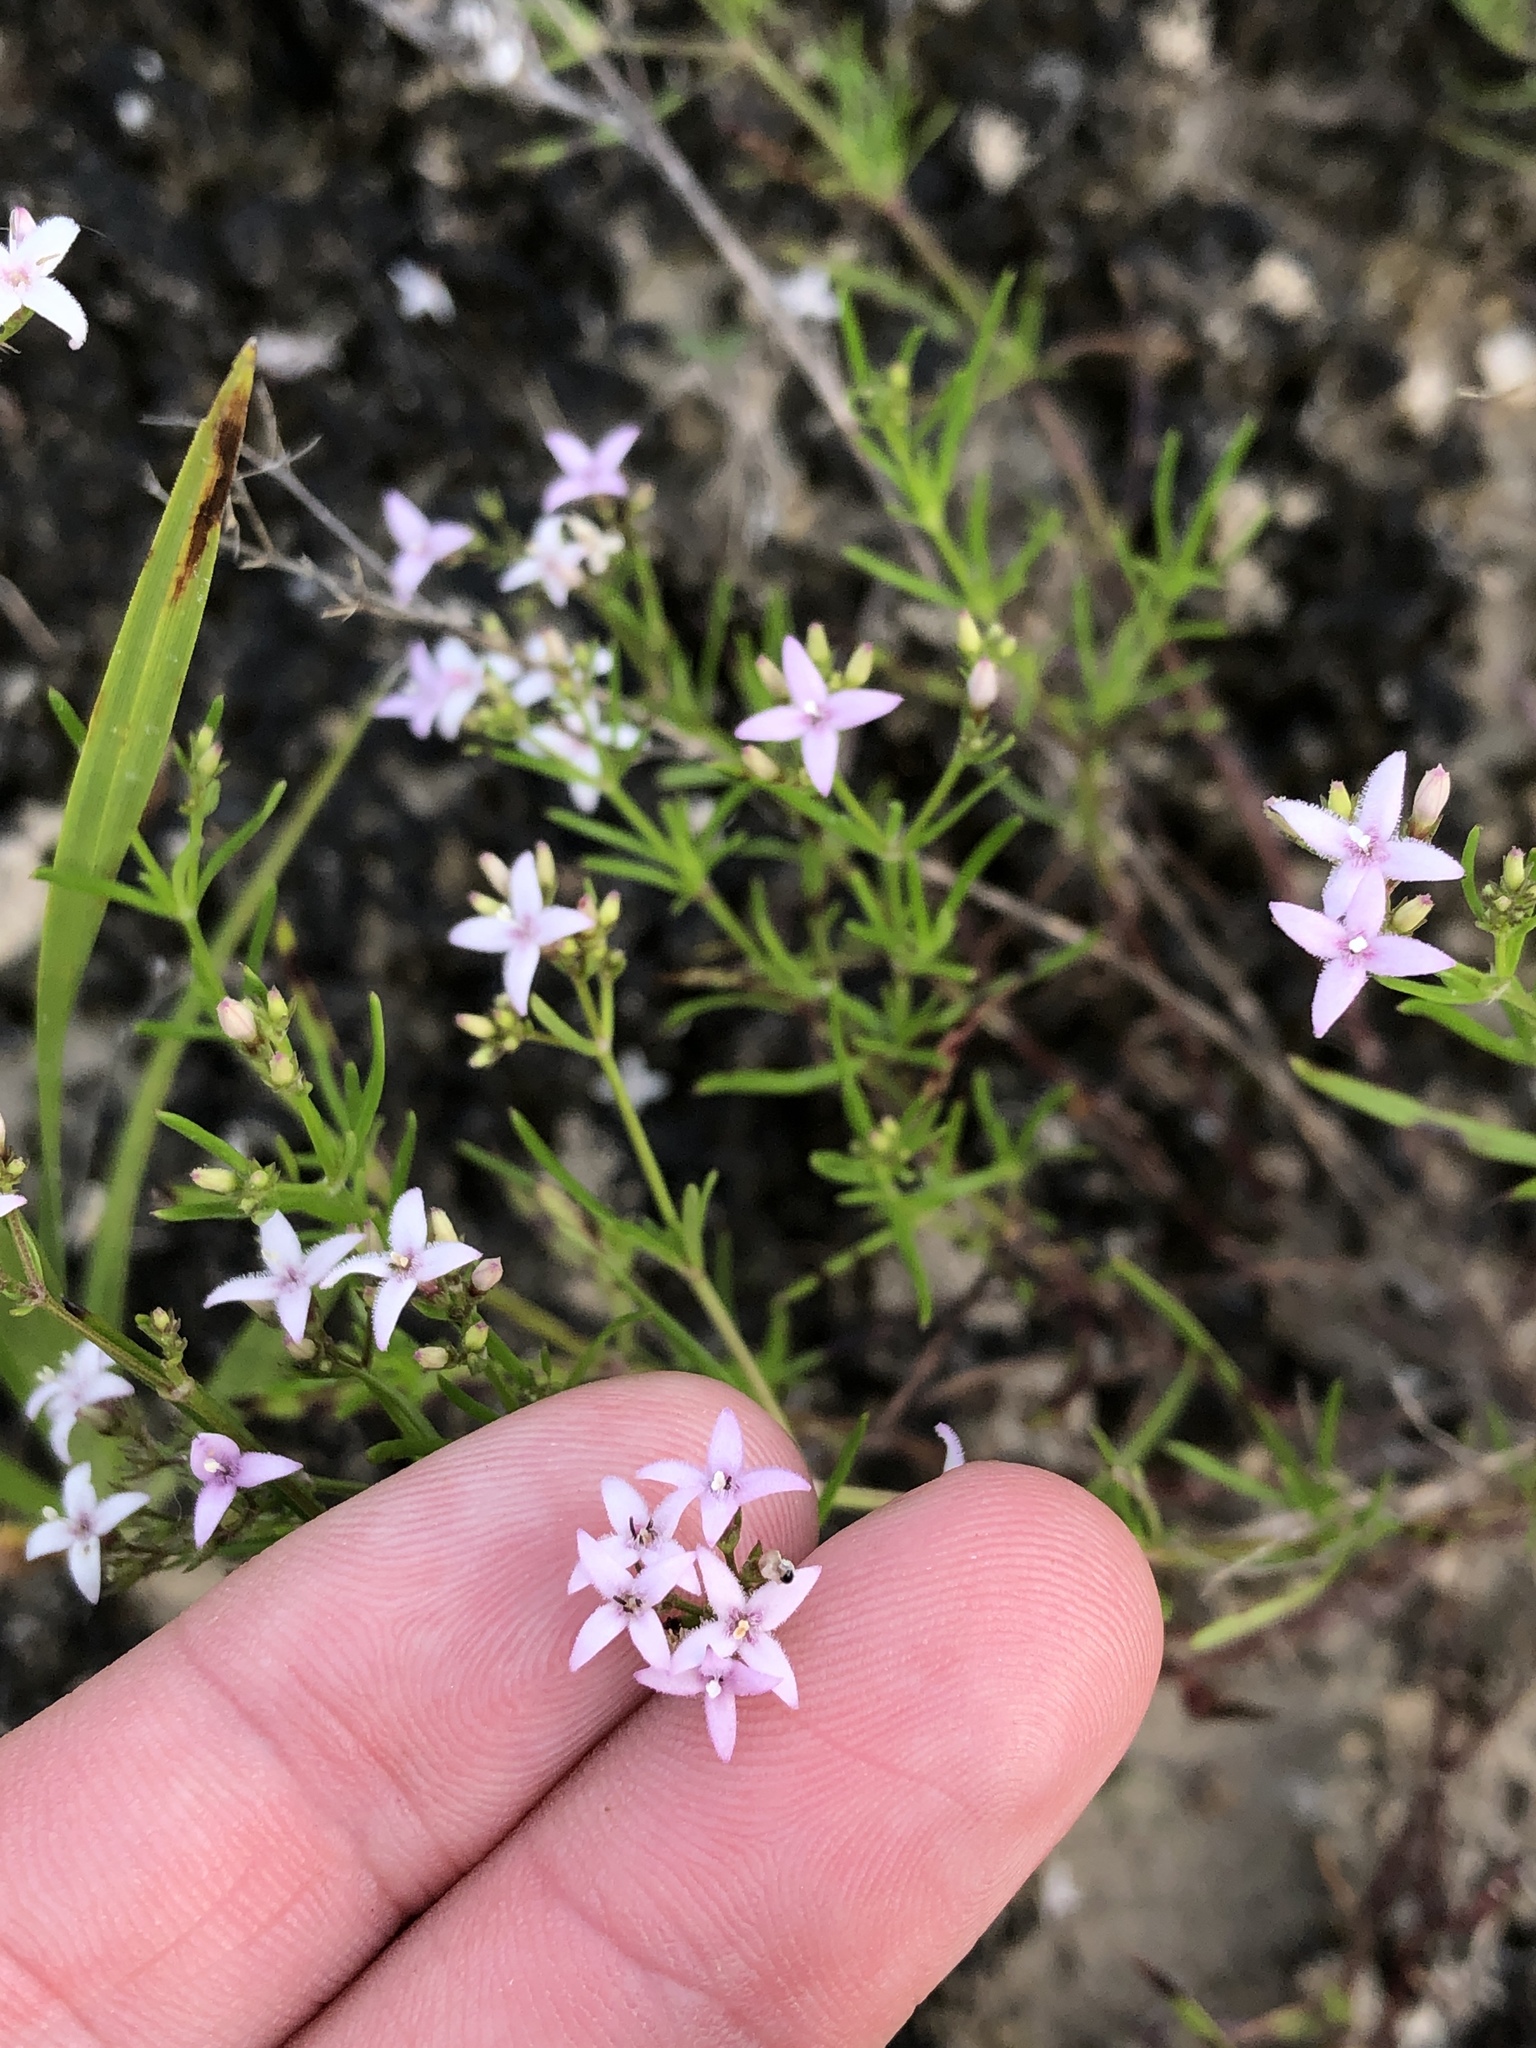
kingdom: Plantae
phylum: Tracheophyta
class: Magnoliopsida
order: Gentianales
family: Rubiaceae
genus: Stenaria
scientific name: Stenaria nigricans
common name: Diamondflowers
